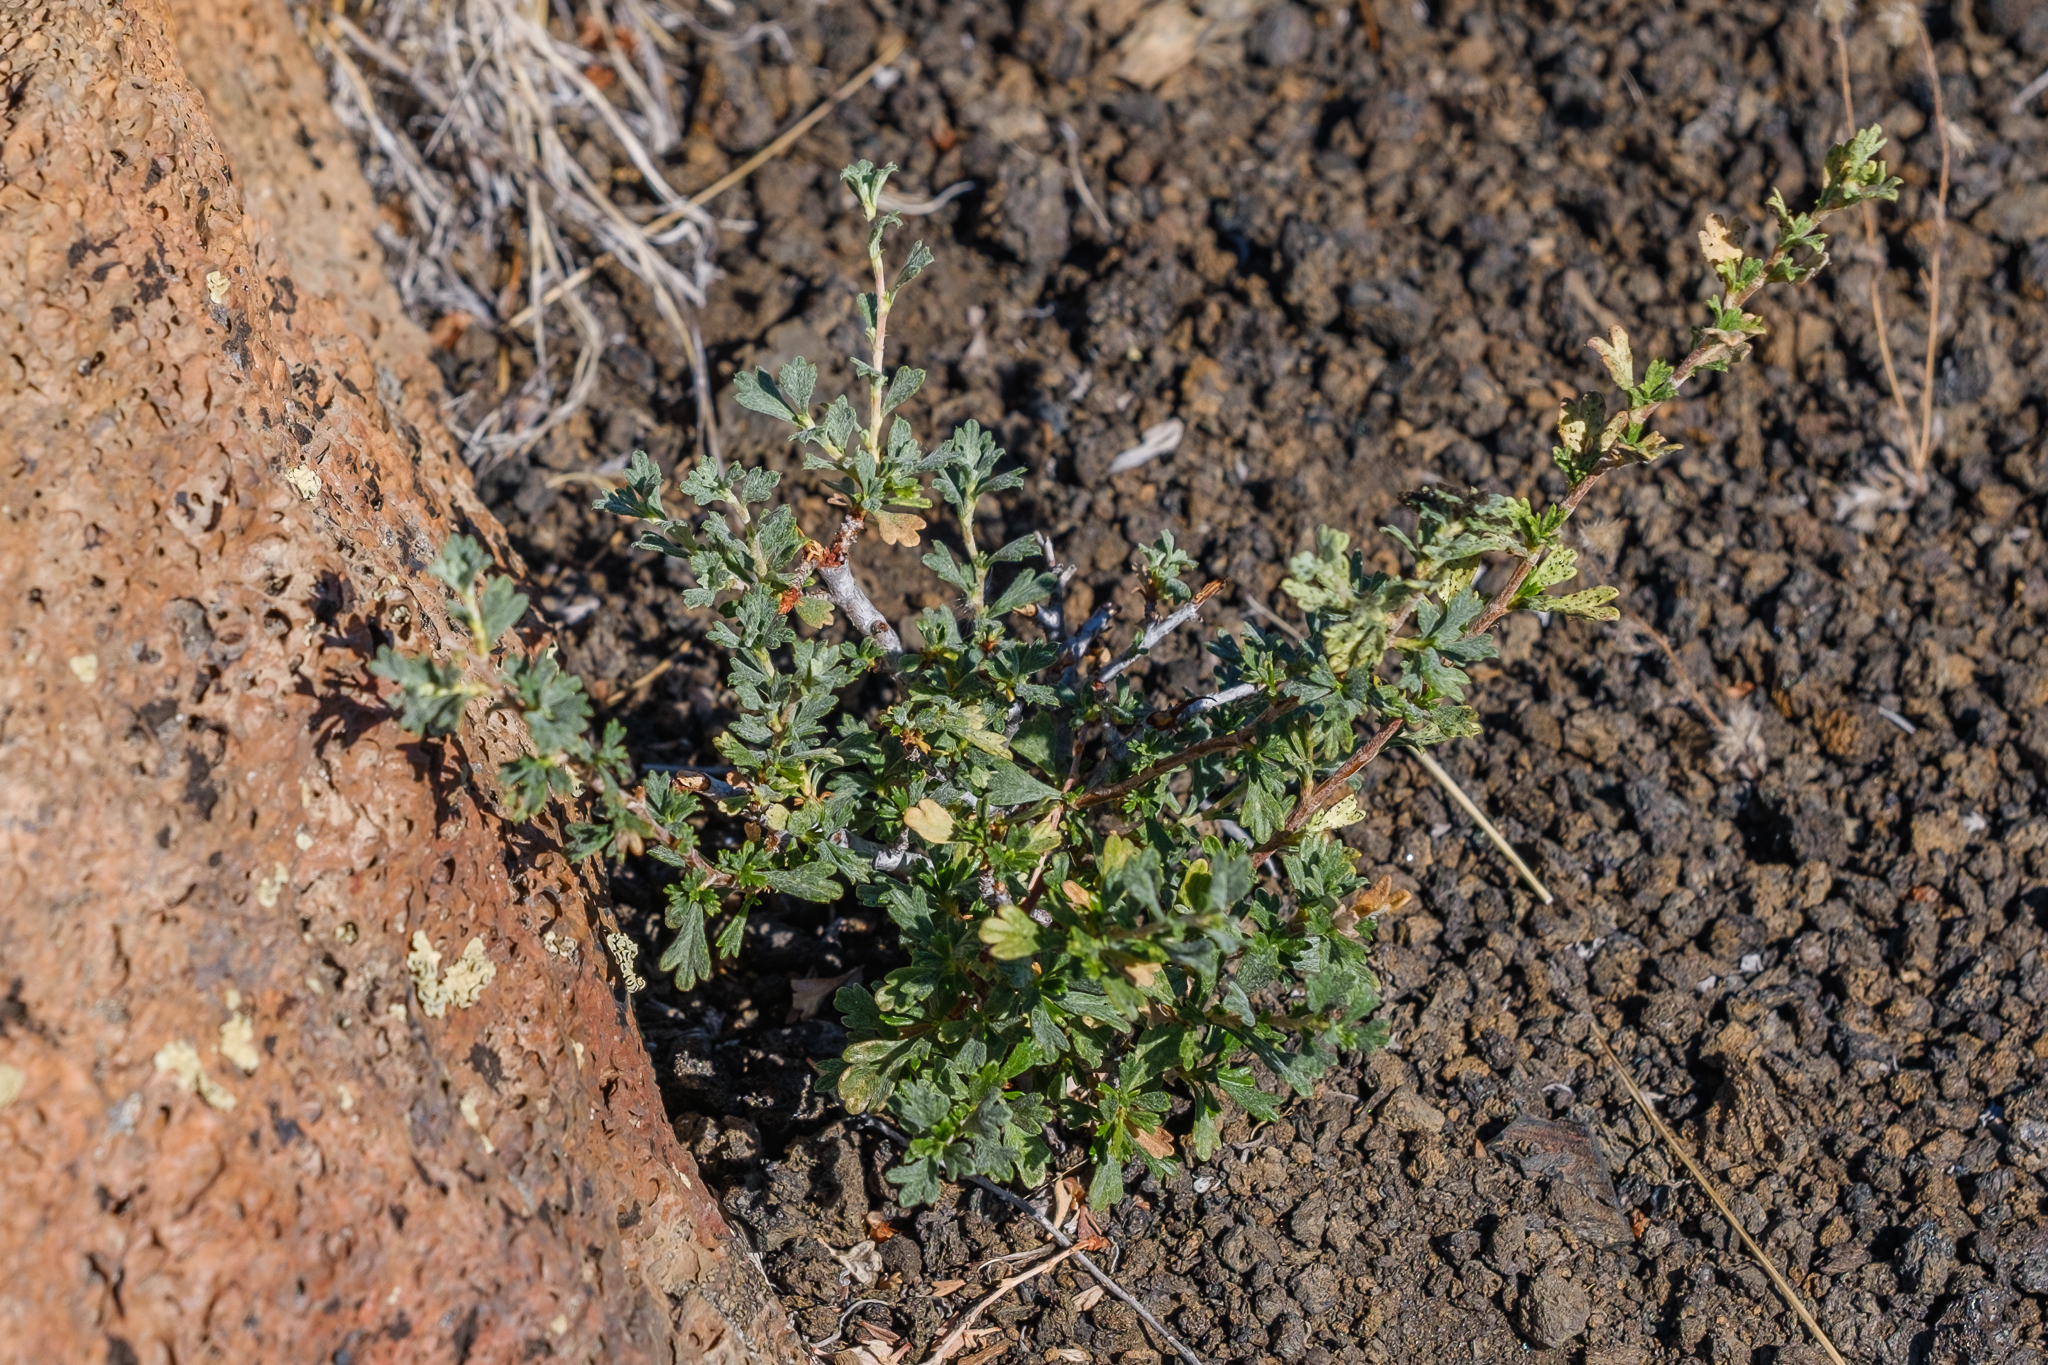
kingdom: Plantae
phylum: Tracheophyta
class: Magnoliopsida
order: Rosales
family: Rosaceae
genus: Purshia
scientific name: Purshia tridentata
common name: Antelope bitterbrush
